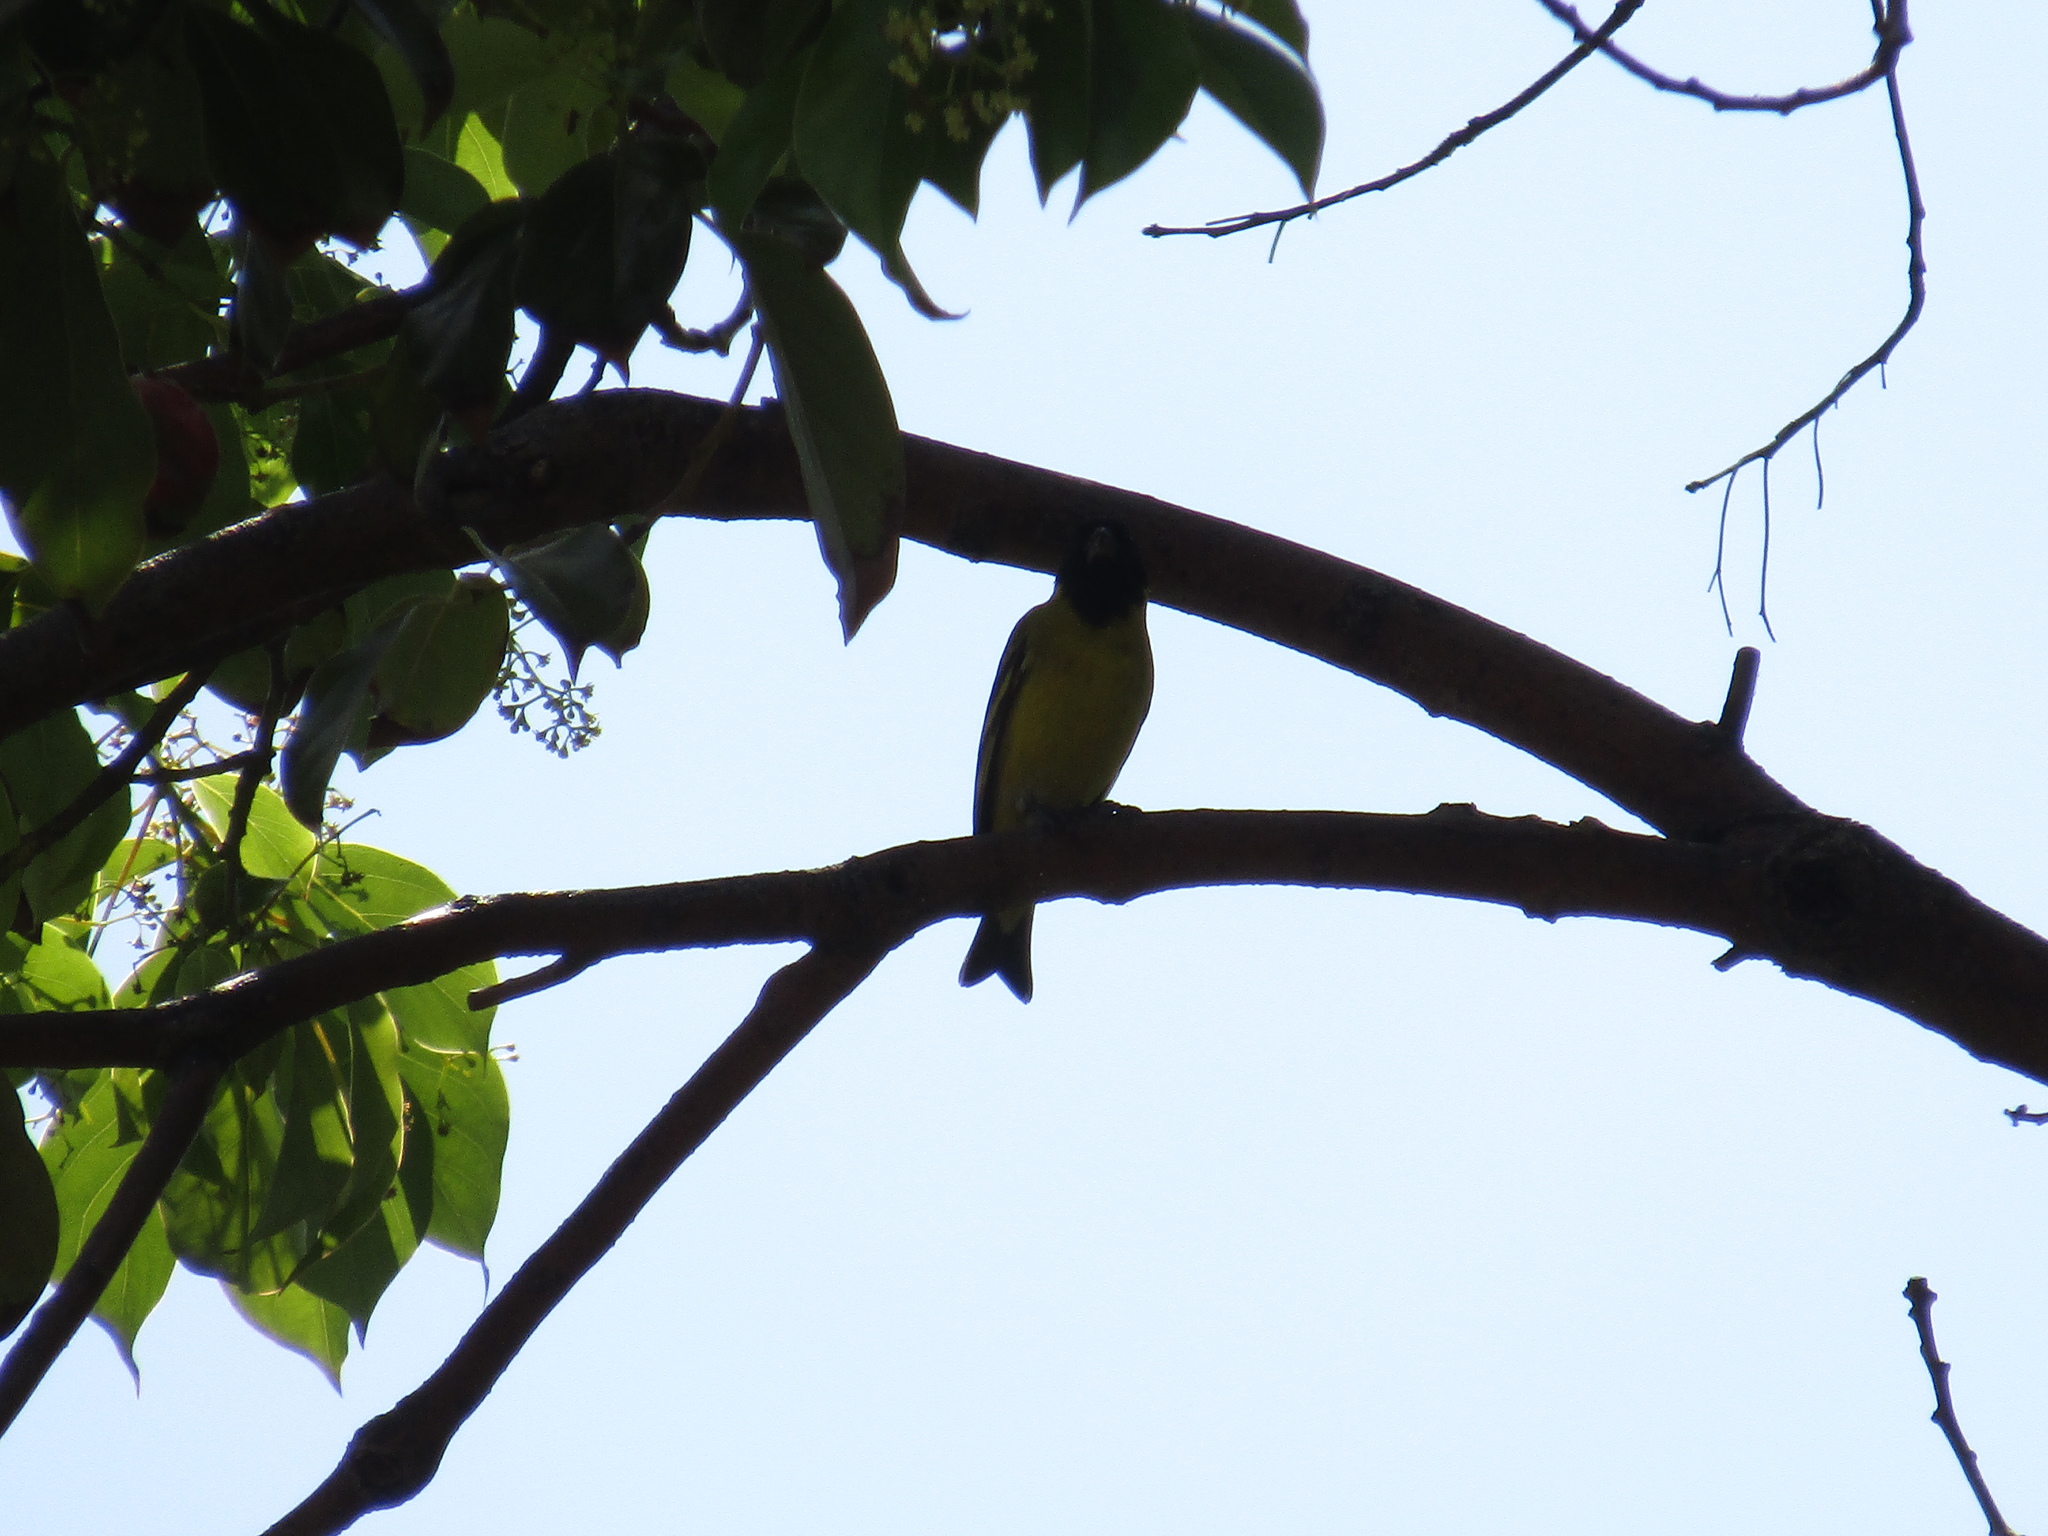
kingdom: Animalia
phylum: Chordata
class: Aves
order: Passeriformes
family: Fringillidae
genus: Spinus
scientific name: Spinus magellanicus
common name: Hooded siskin
